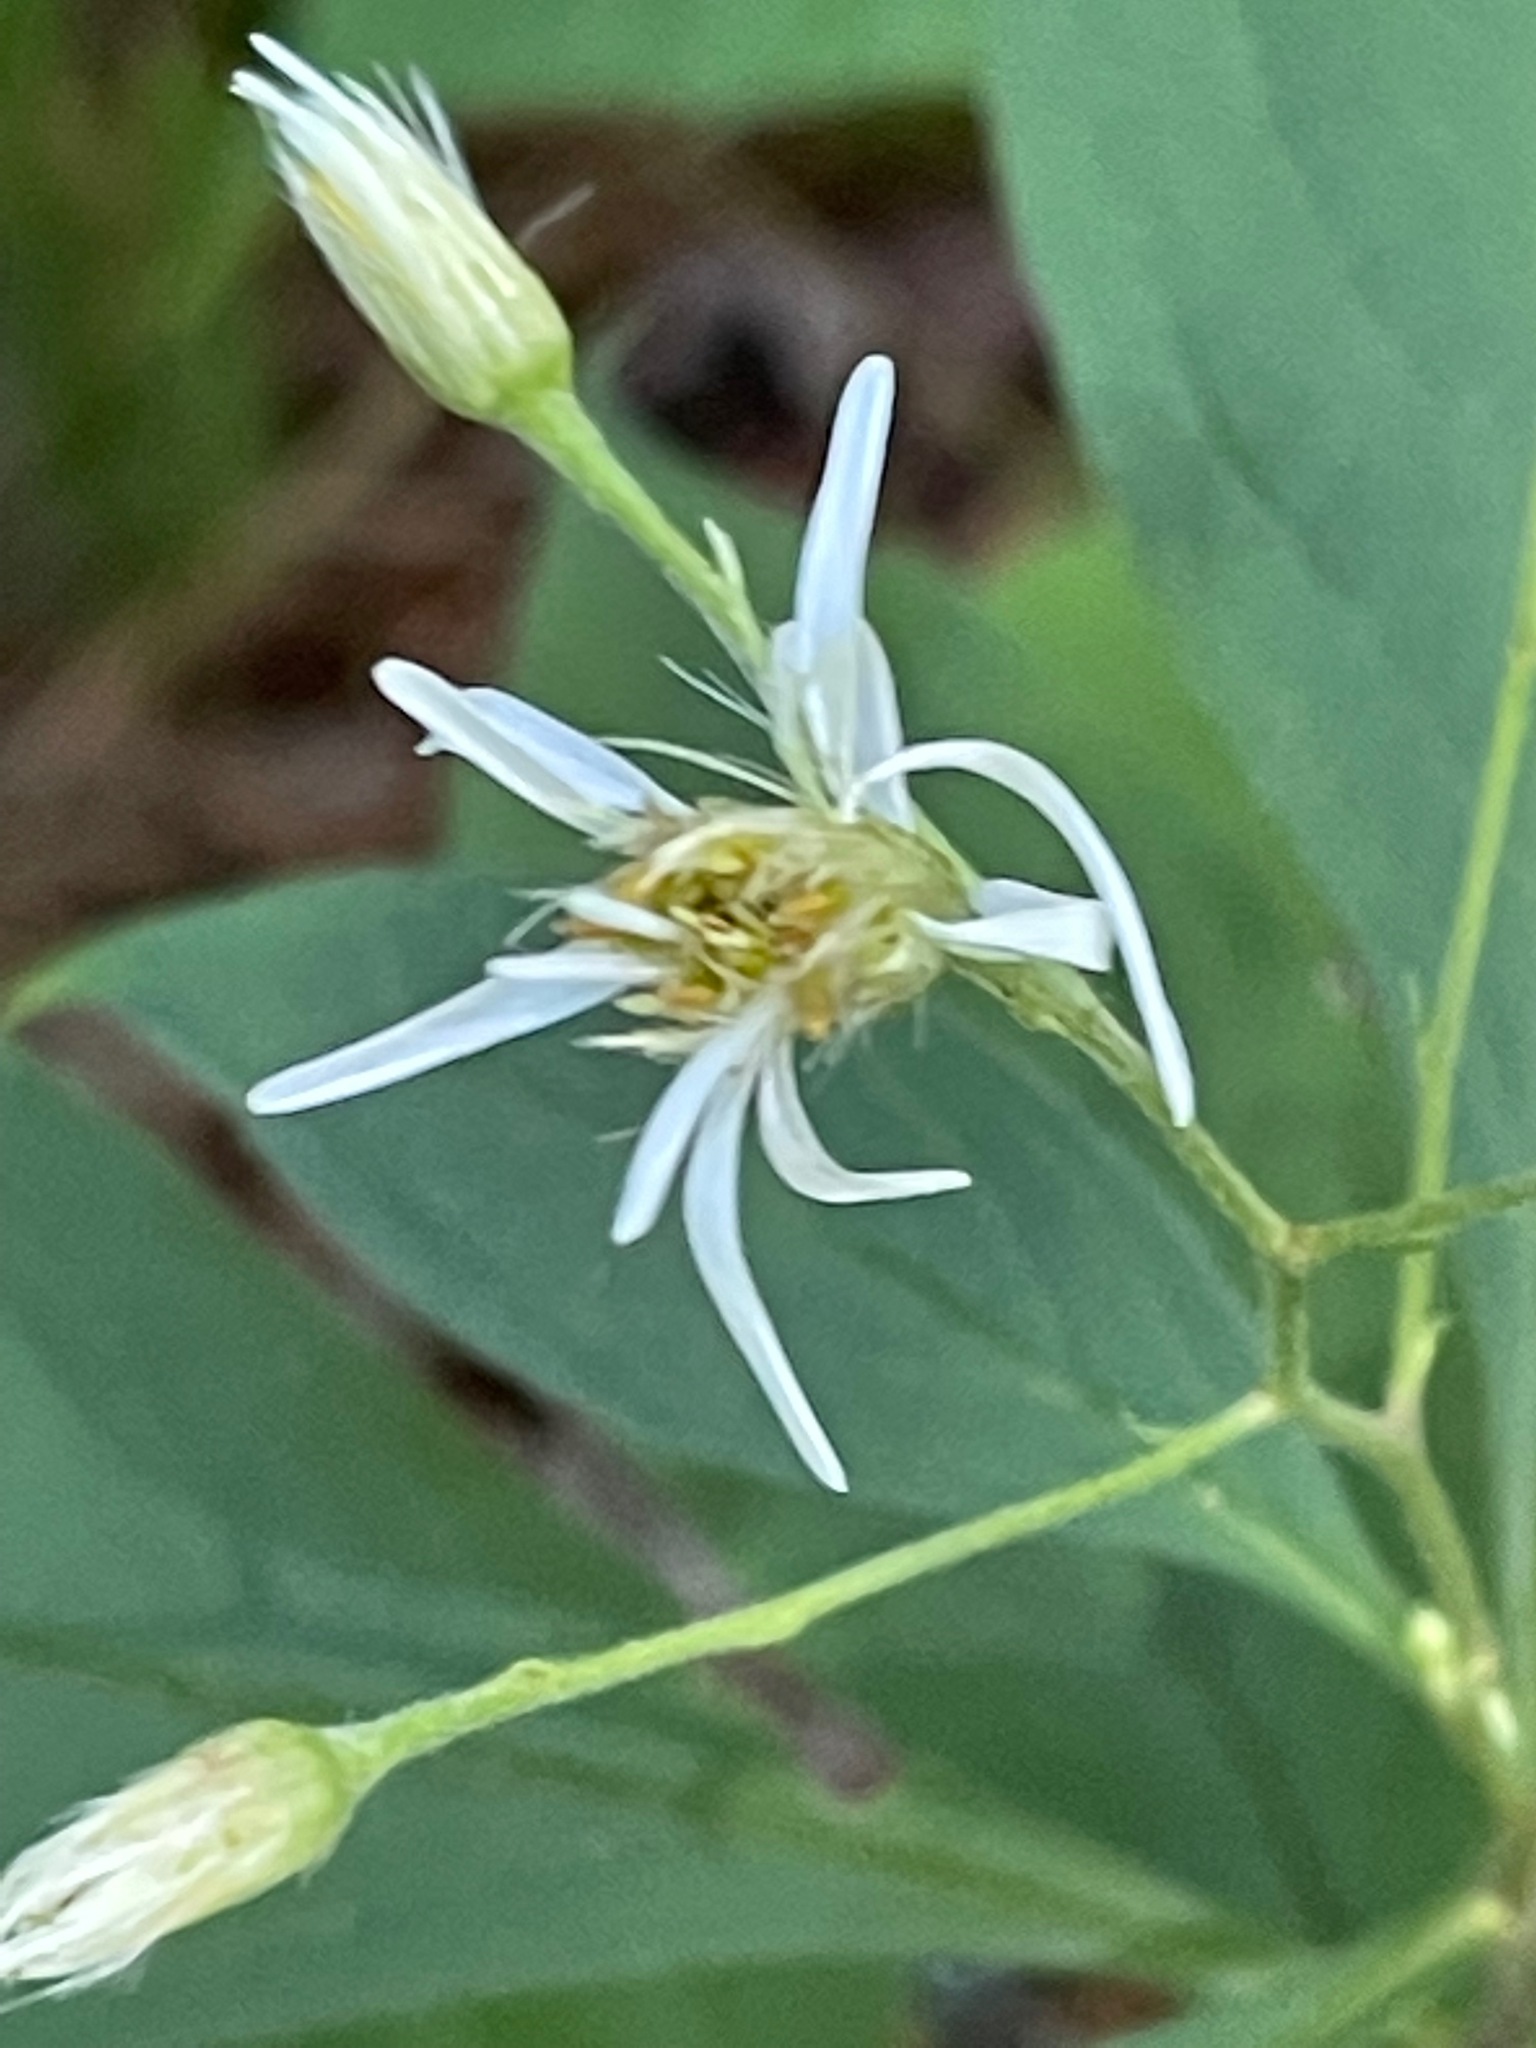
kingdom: Plantae
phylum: Tracheophyta
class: Magnoliopsida
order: Asterales
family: Asteraceae
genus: Oclemena
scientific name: Oclemena acuminata
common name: Mountain aster
